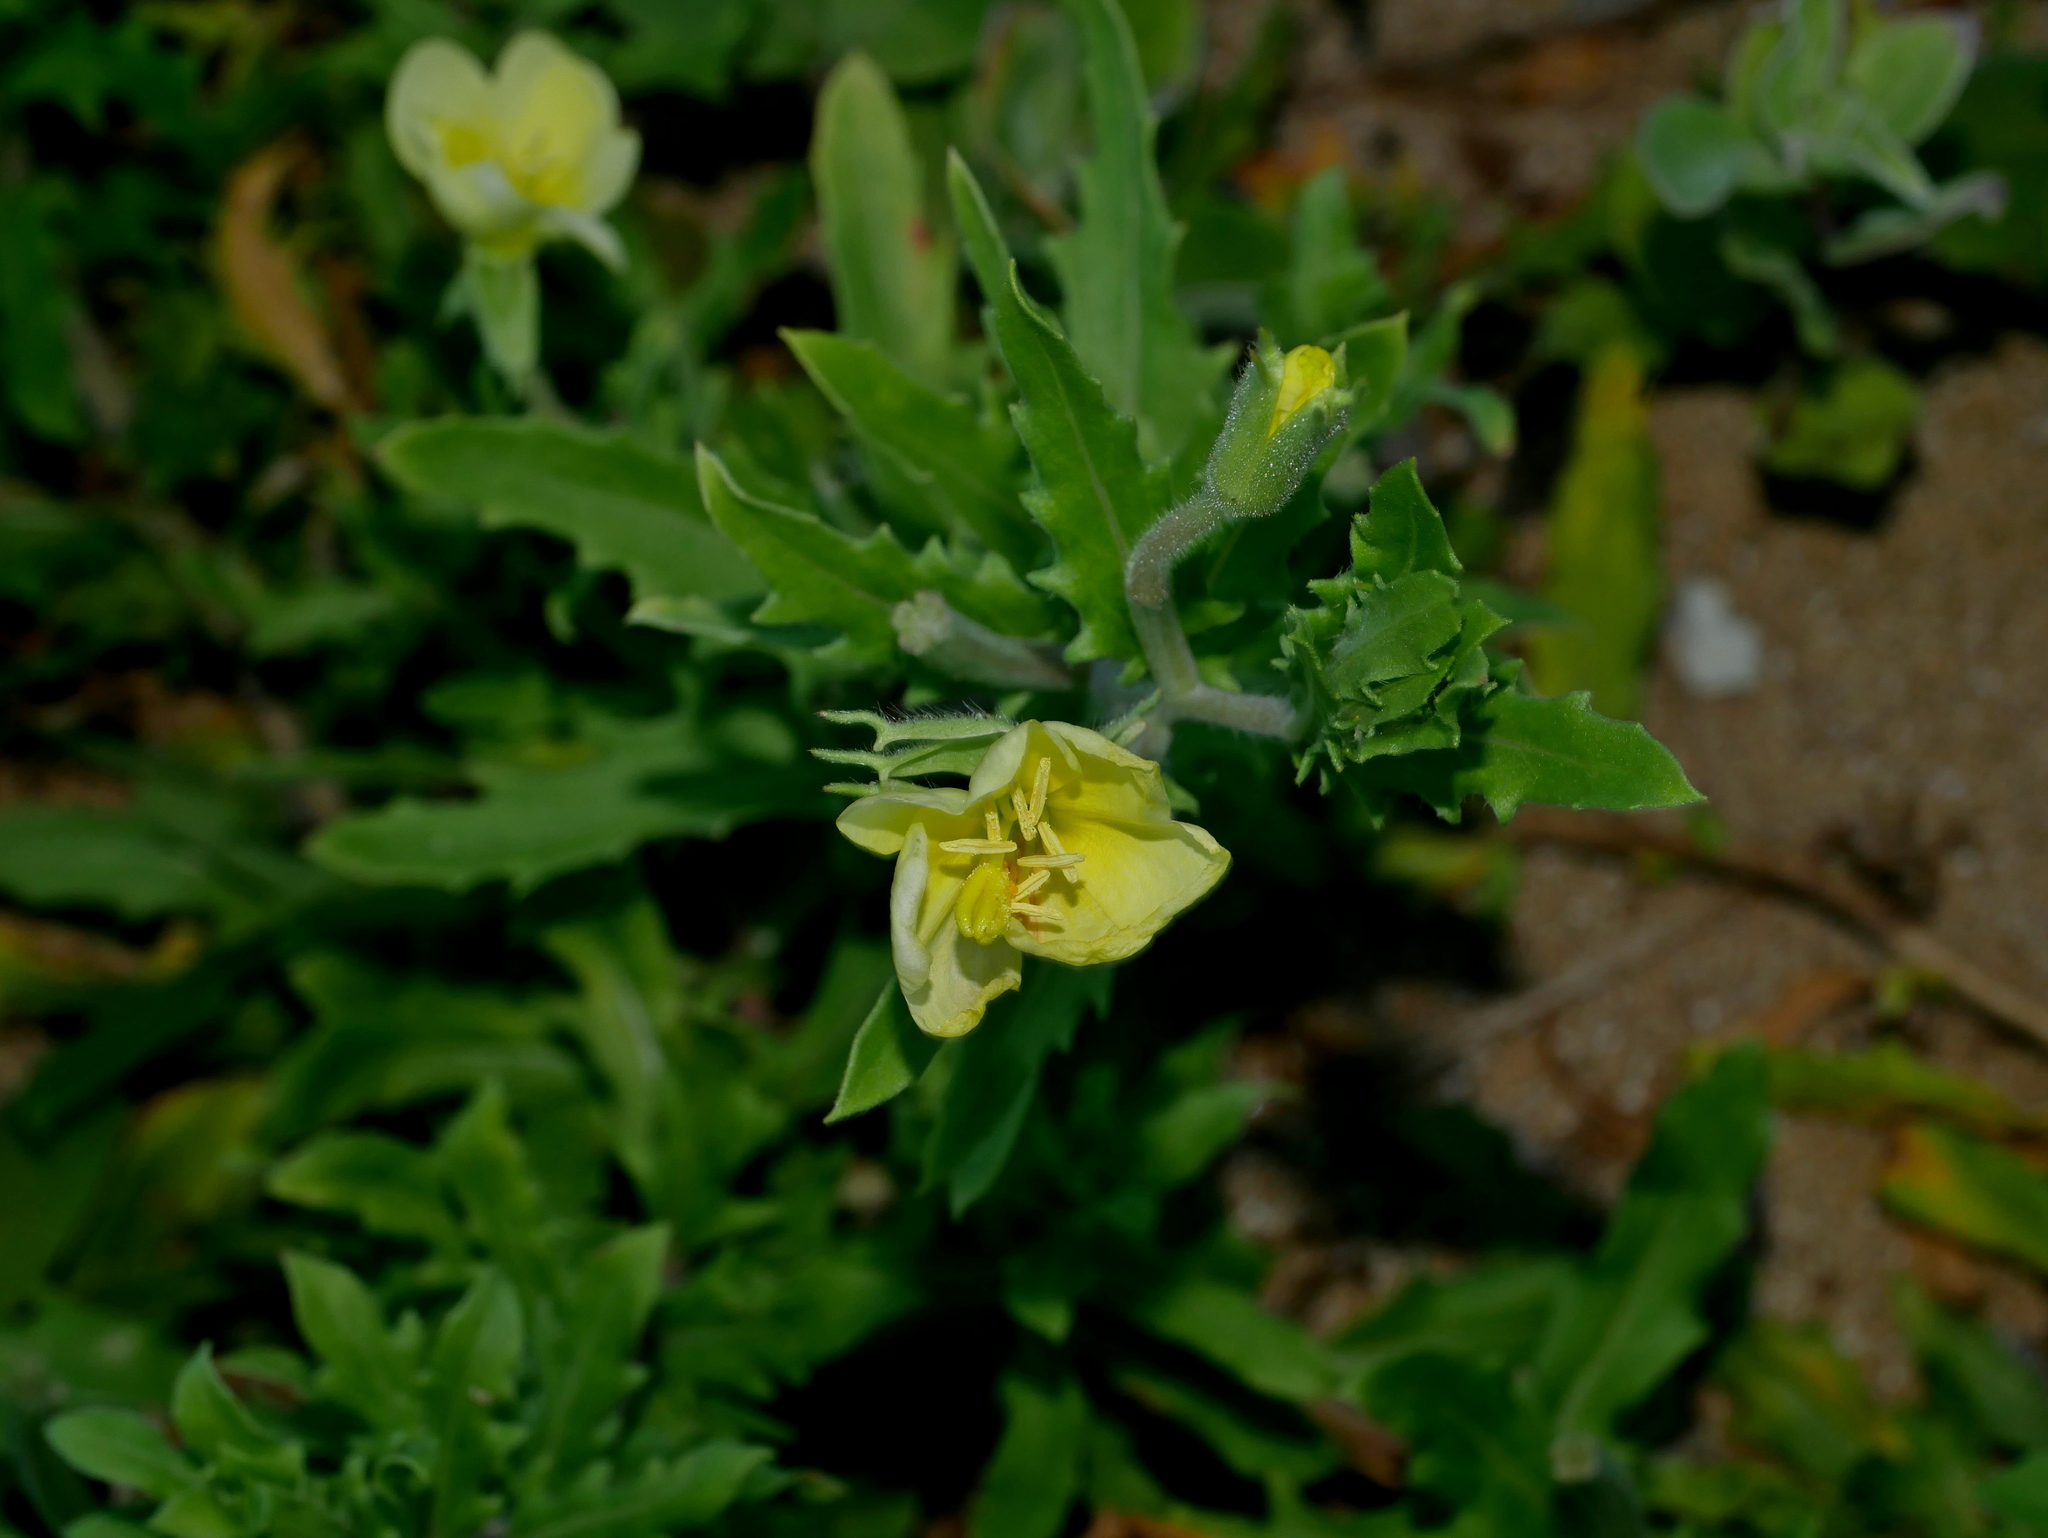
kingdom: Plantae
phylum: Tracheophyta
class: Magnoliopsida
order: Myrtales
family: Onagraceae
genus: Oenothera
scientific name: Oenothera laciniata
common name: Cut-leaved evening-primrose
